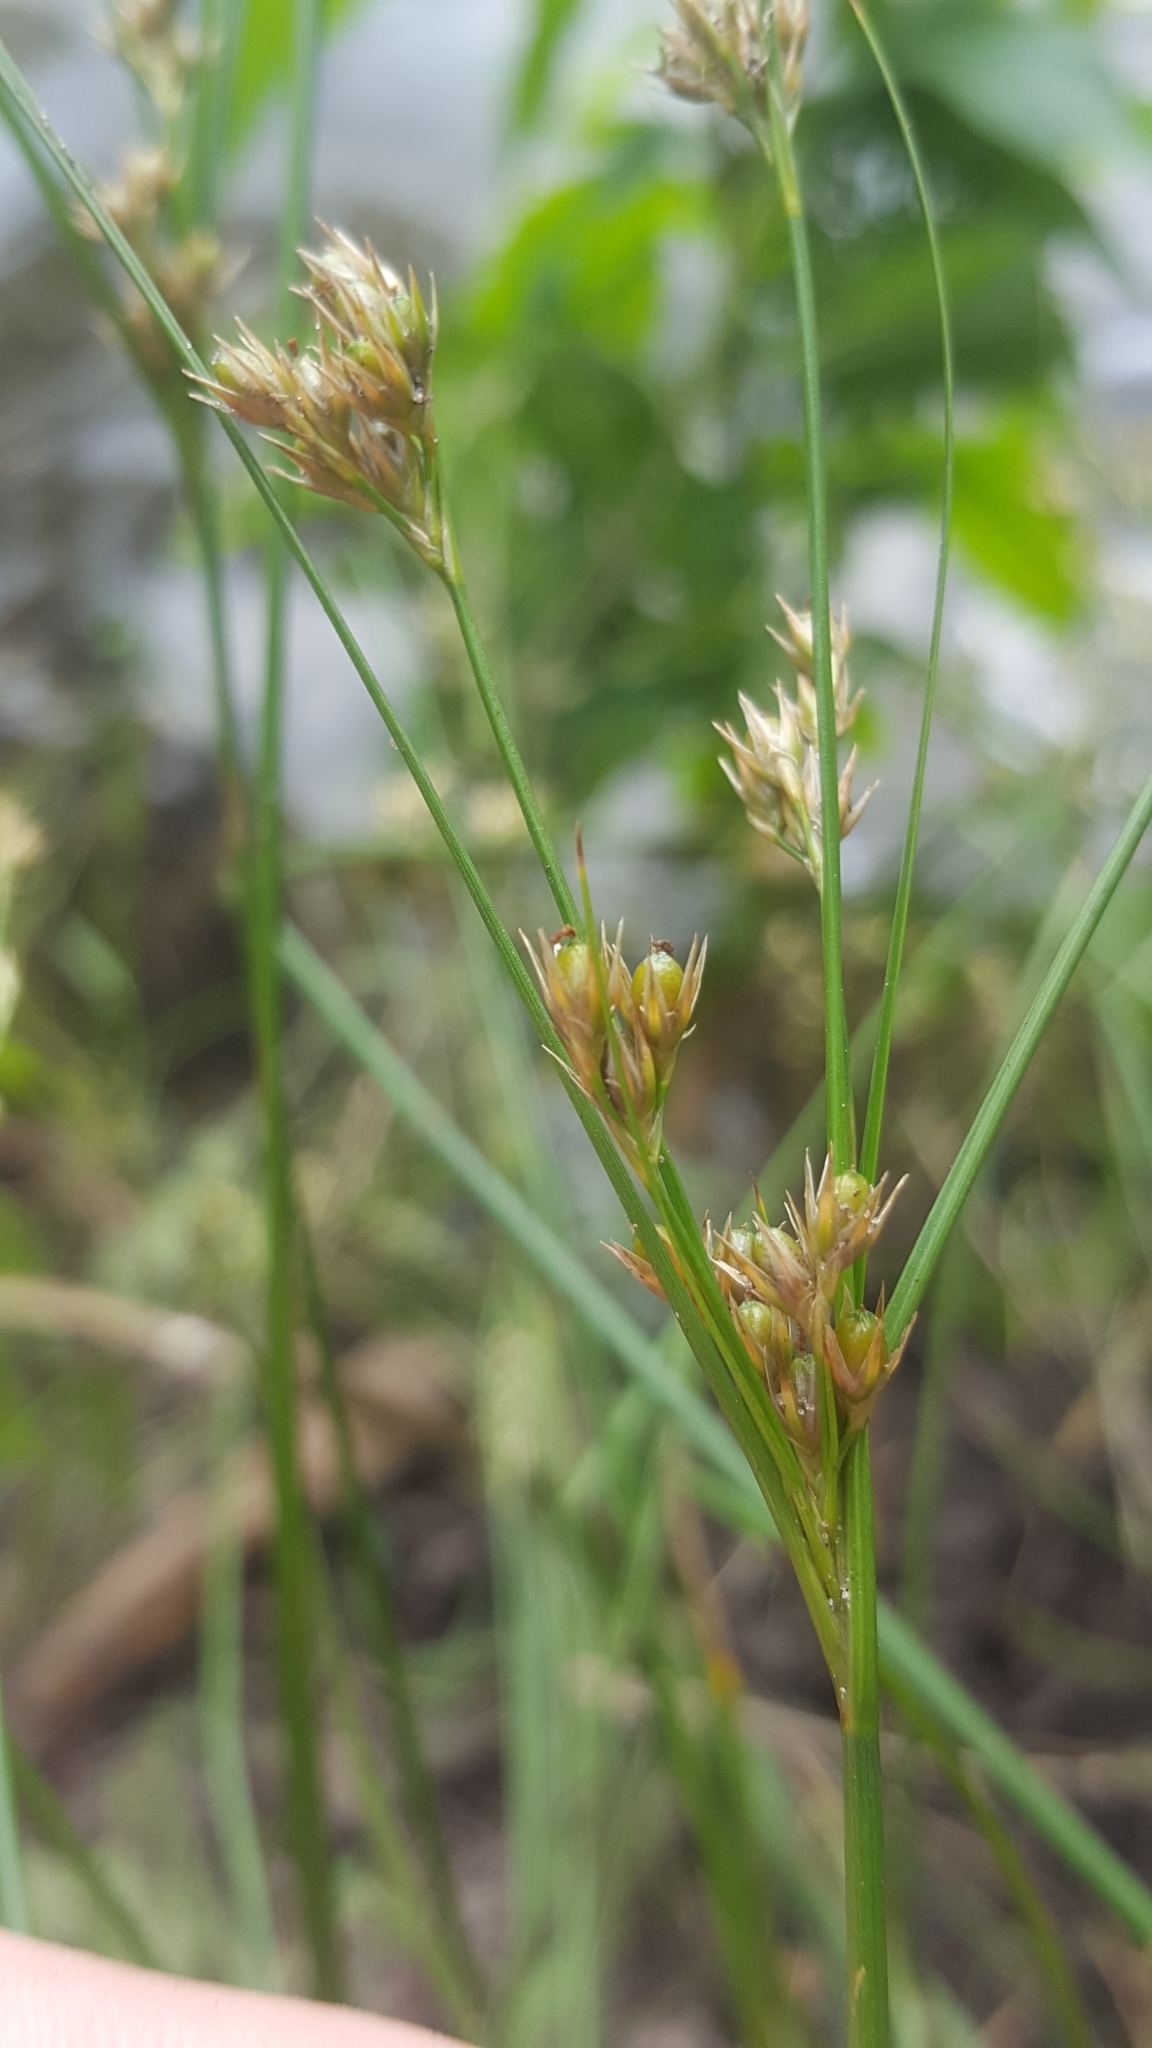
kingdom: Plantae
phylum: Tracheophyta
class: Liliopsida
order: Poales
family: Juncaceae
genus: Juncus
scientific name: Juncus tenuis
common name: Slender rush
